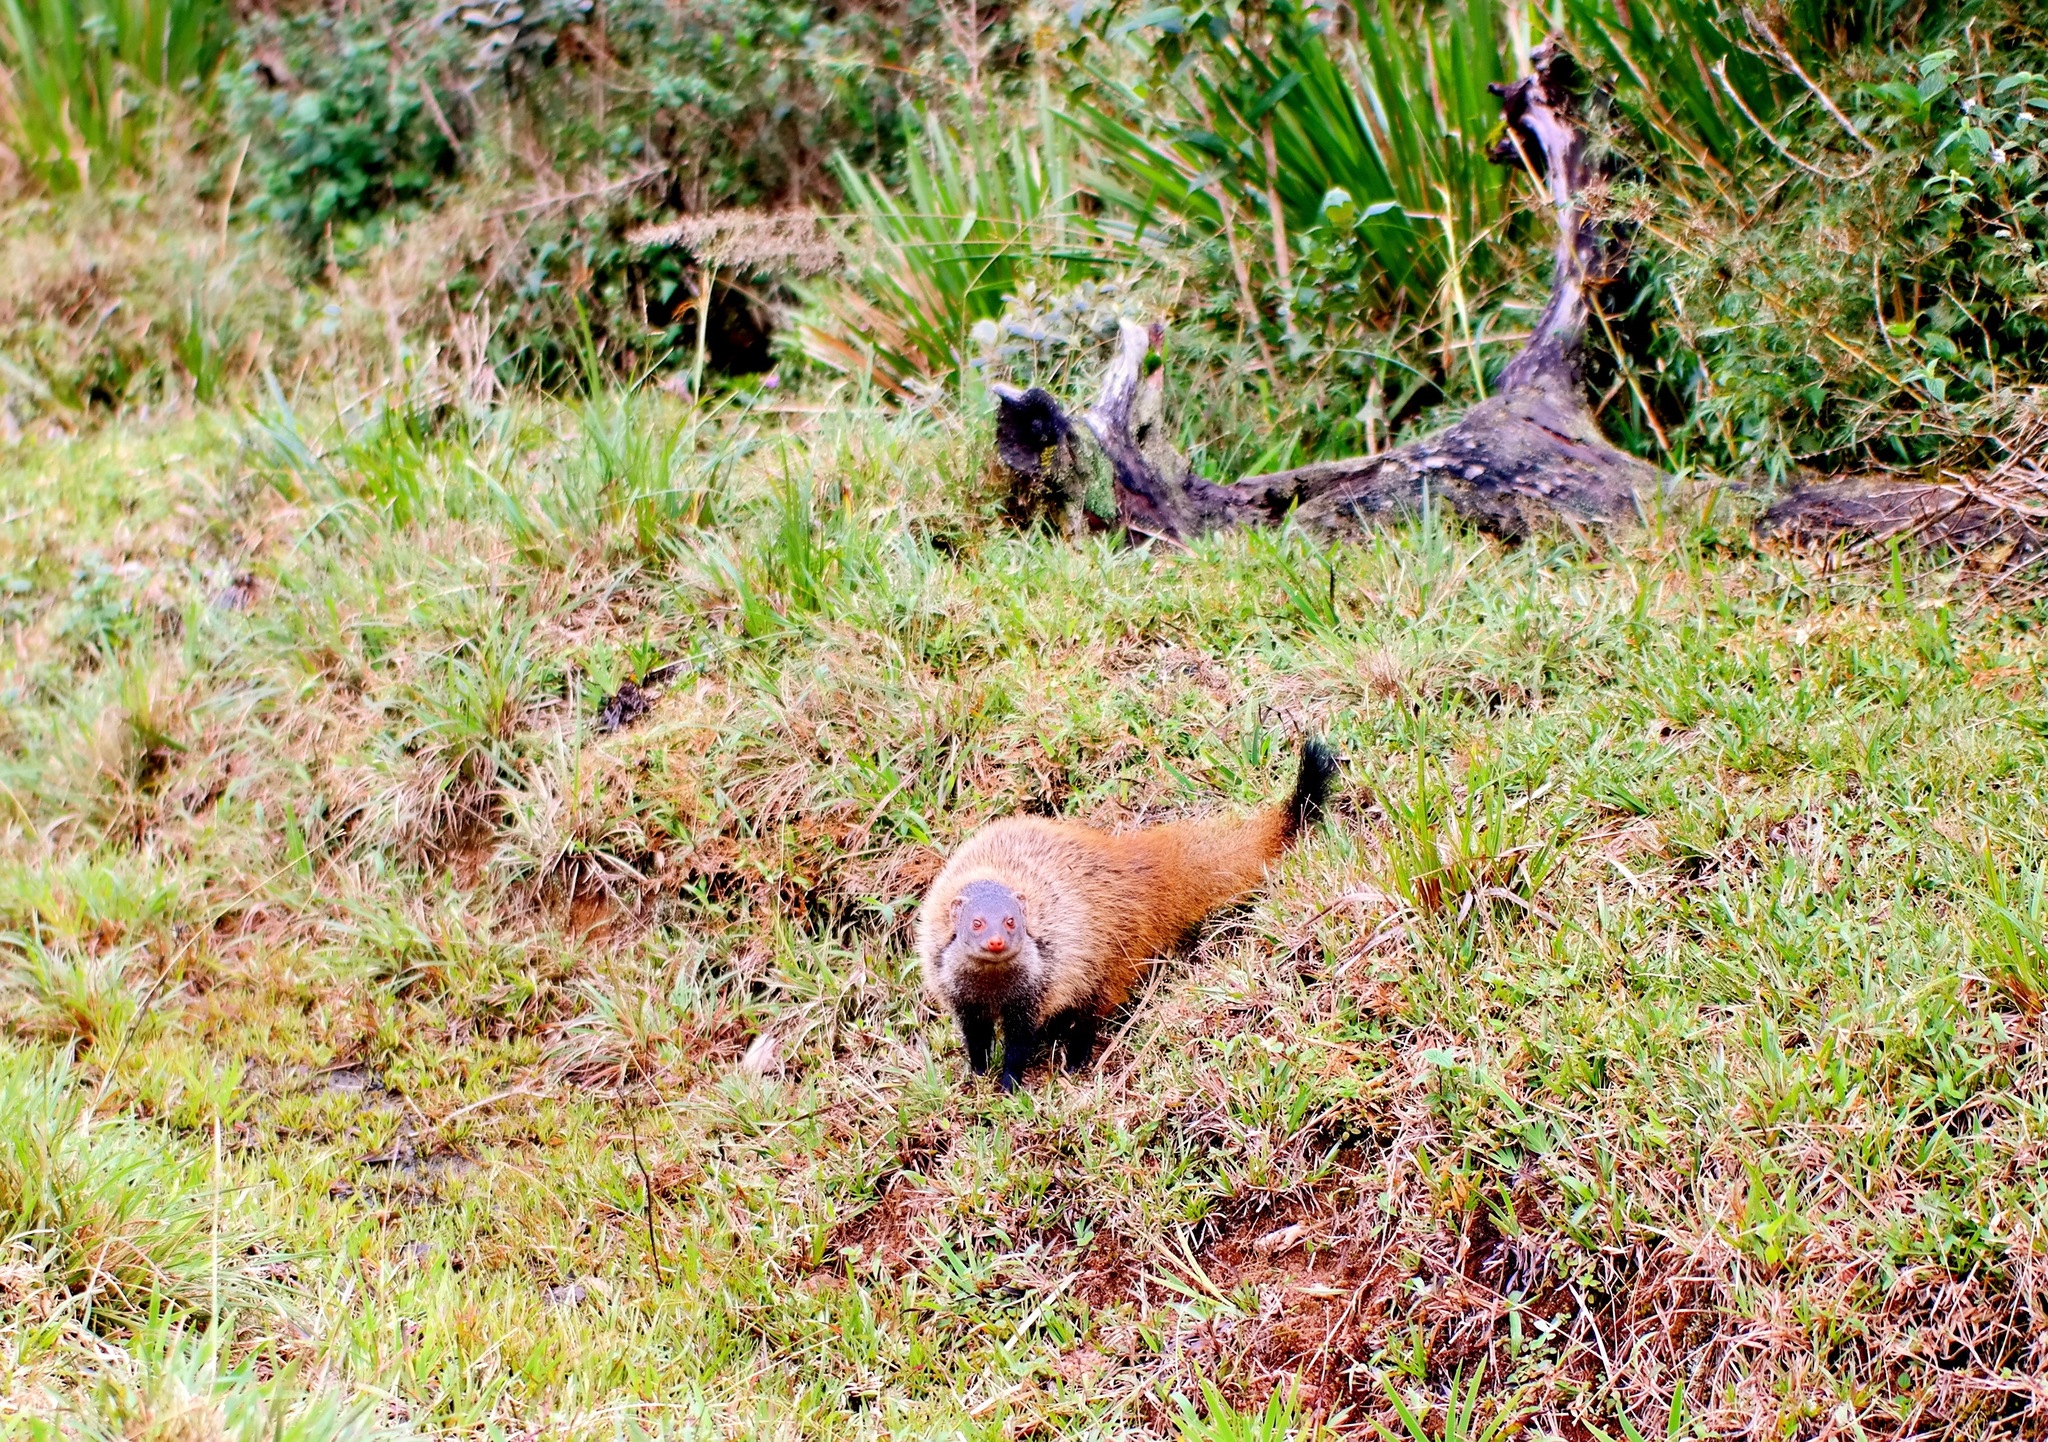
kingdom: Animalia
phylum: Chordata
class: Mammalia
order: Carnivora
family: Herpestidae
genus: Herpestes
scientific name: Herpestes vitticollis
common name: Stripe-necked mongoose
